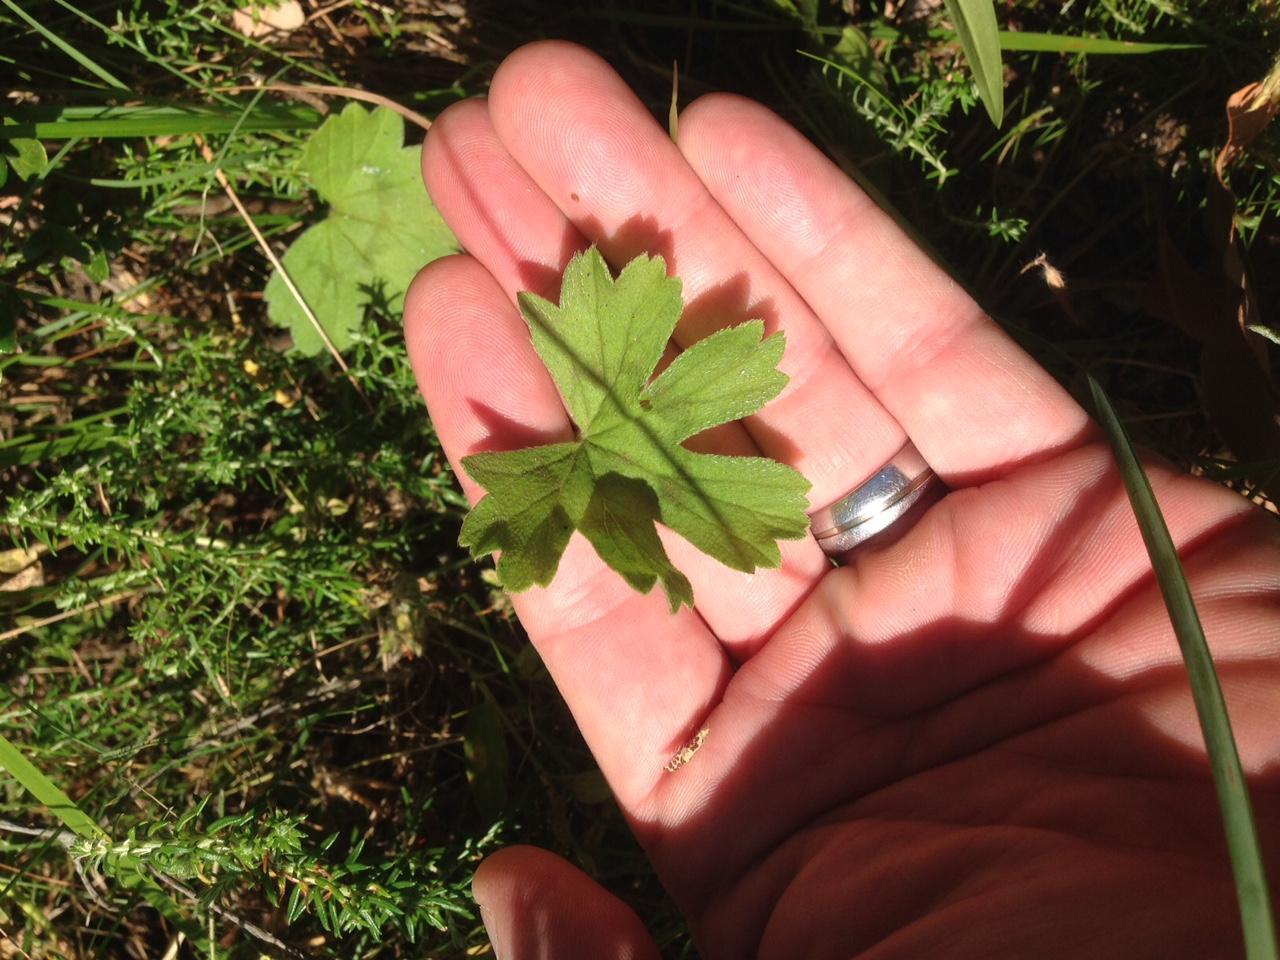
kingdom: Plantae
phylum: Tracheophyta
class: Magnoliopsida
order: Geraniales
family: Geraniaceae
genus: Pelargonium
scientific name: Pelargonium alchemilloides
